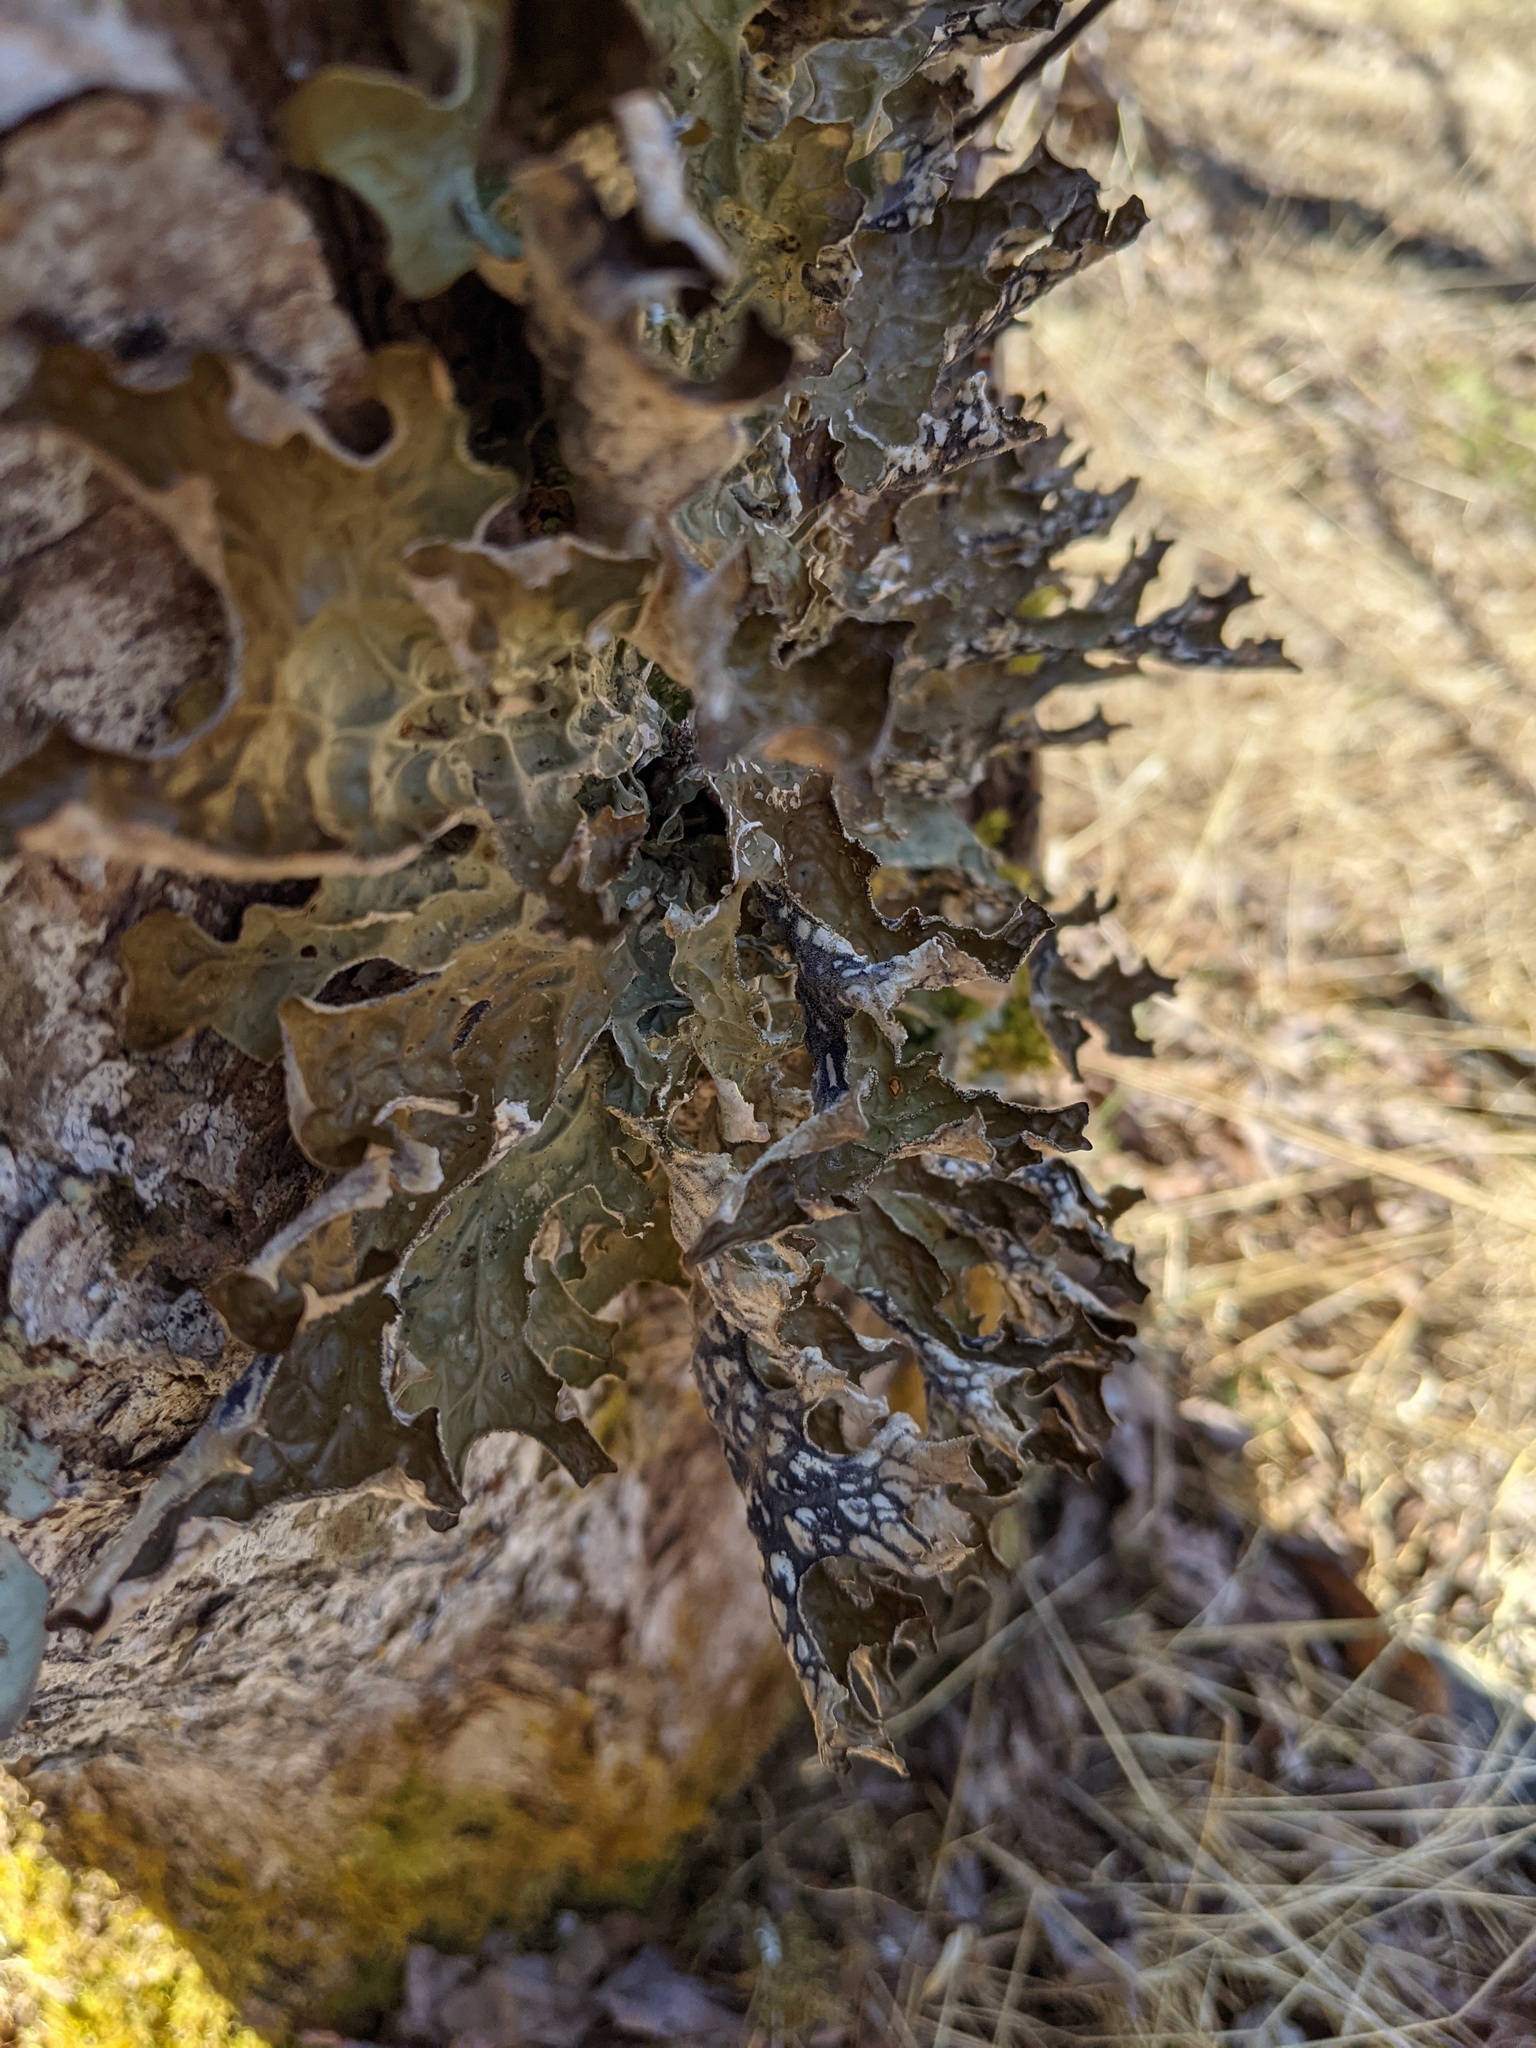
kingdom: Fungi
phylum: Ascomycota
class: Lecanoromycetes
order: Peltigerales
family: Lobariaceae
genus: Lobaria
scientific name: Lobaria pulmonaria
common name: Lungwort
